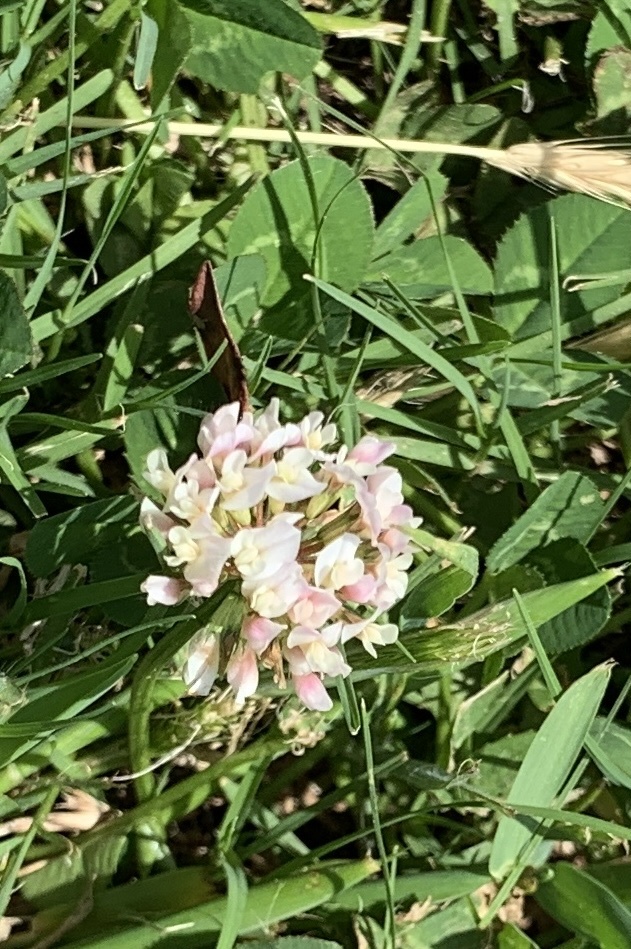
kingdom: Plantae
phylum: Tracheophyta
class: Magnoliopsida
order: Fabales
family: Fabaceae
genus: Trifolium
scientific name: Trifolium repens
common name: White clover
